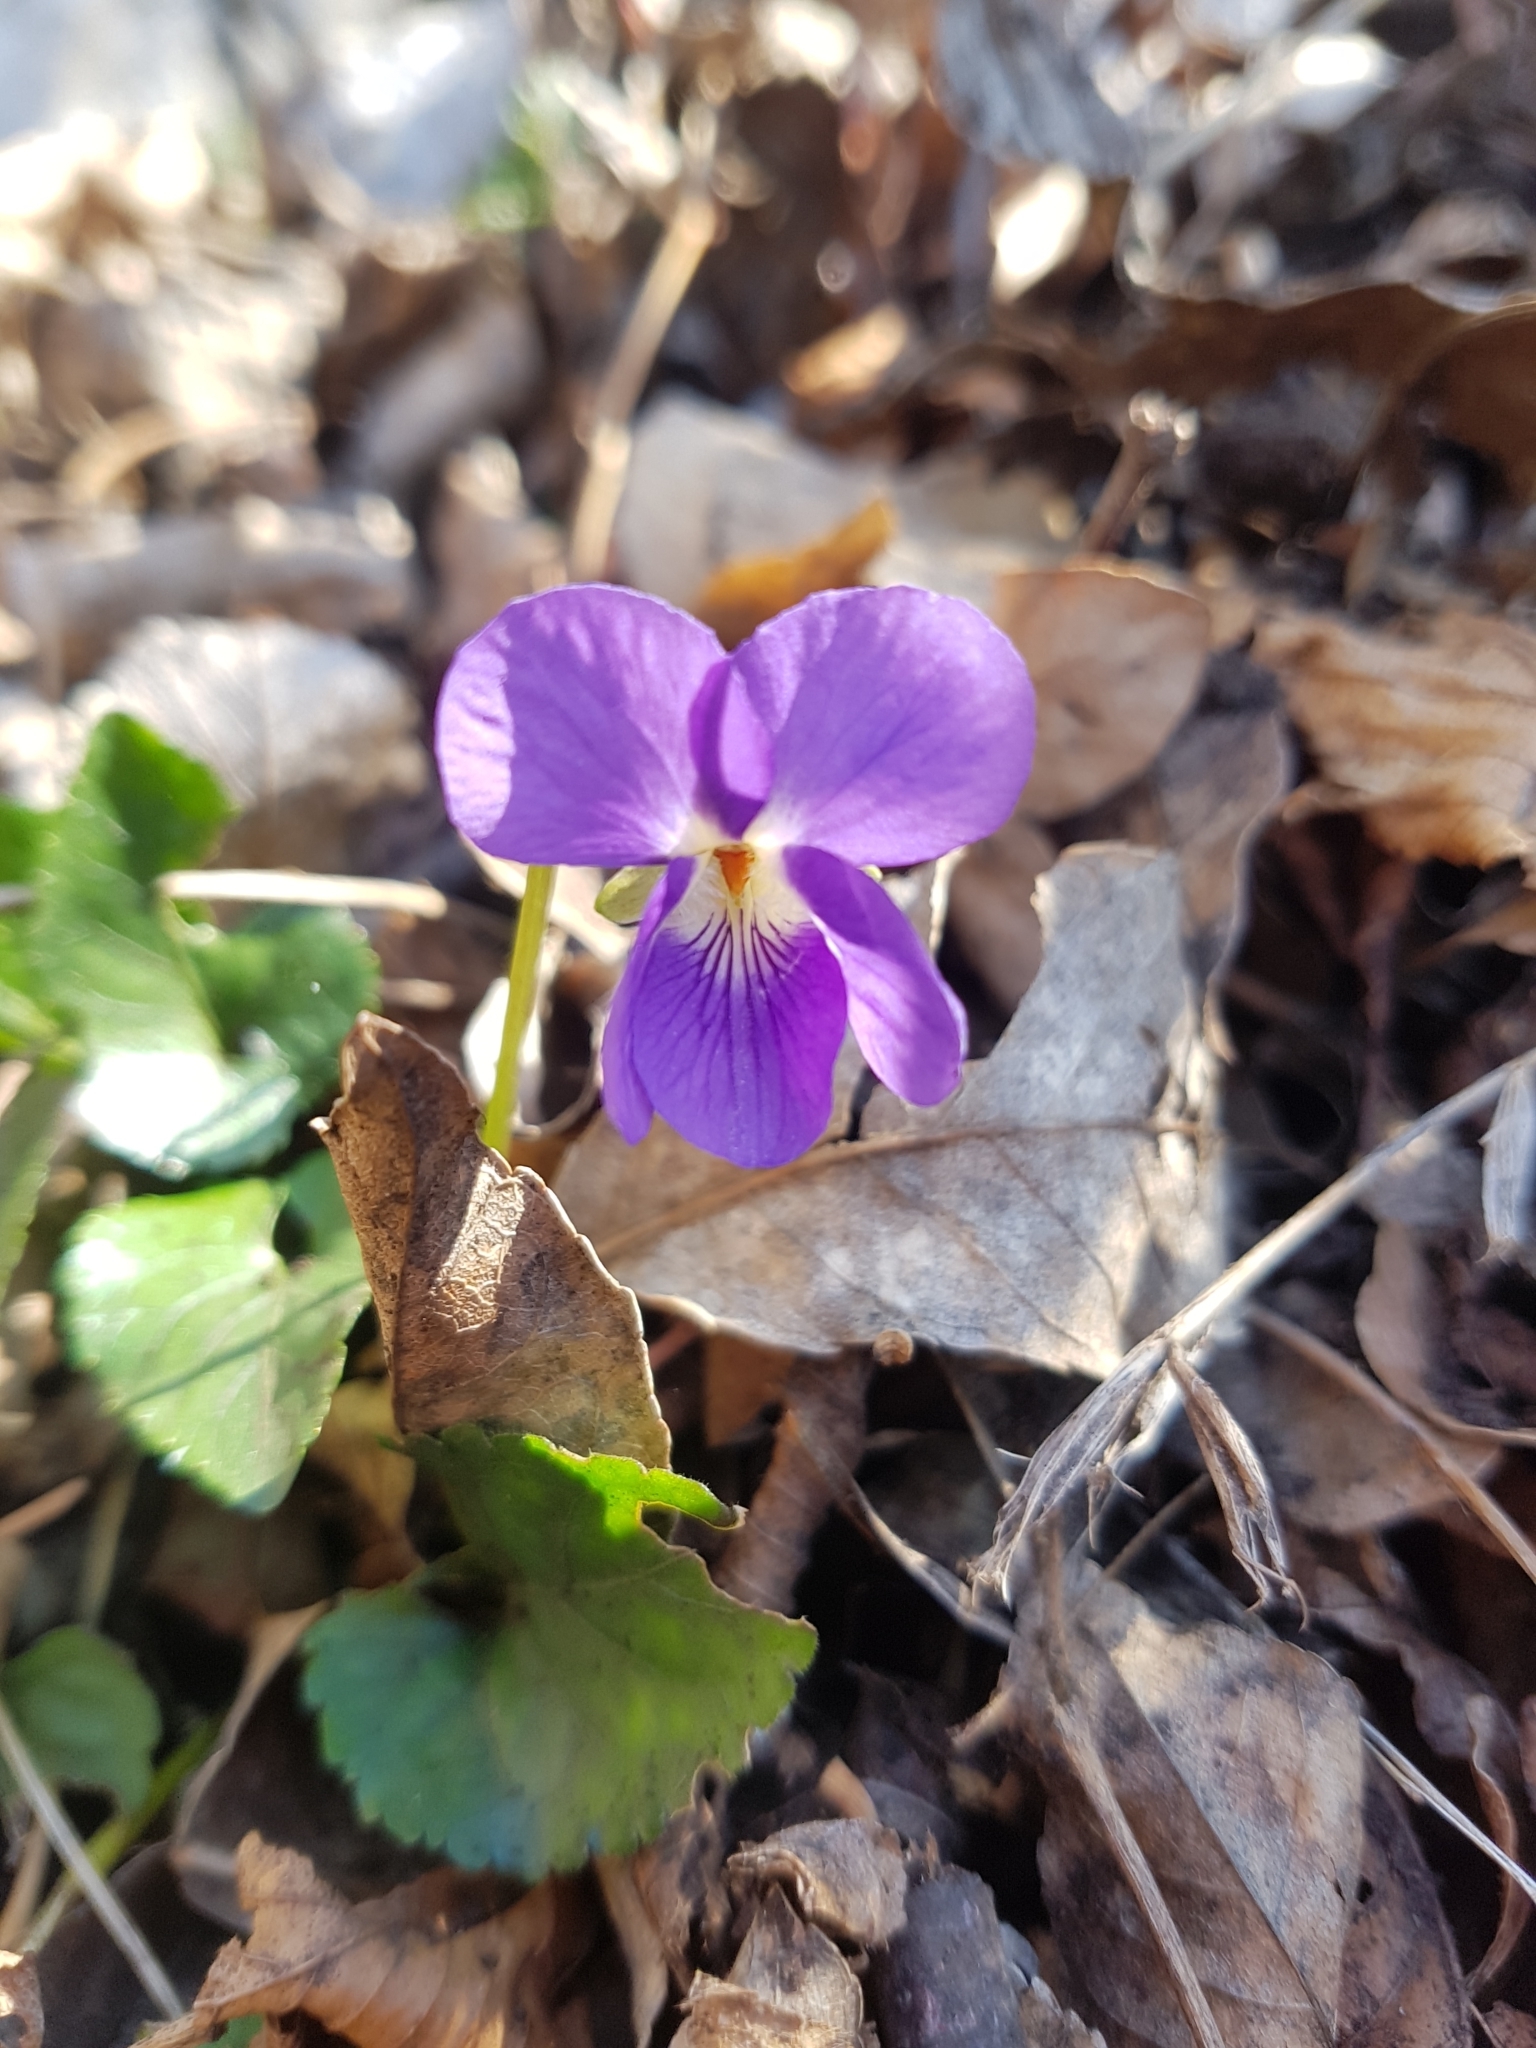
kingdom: Plantae
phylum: Tracheophyta
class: Magnoliopsida
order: Malpighiales
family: Violaceae
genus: Viola
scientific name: Viola odorata
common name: Sweet violet
